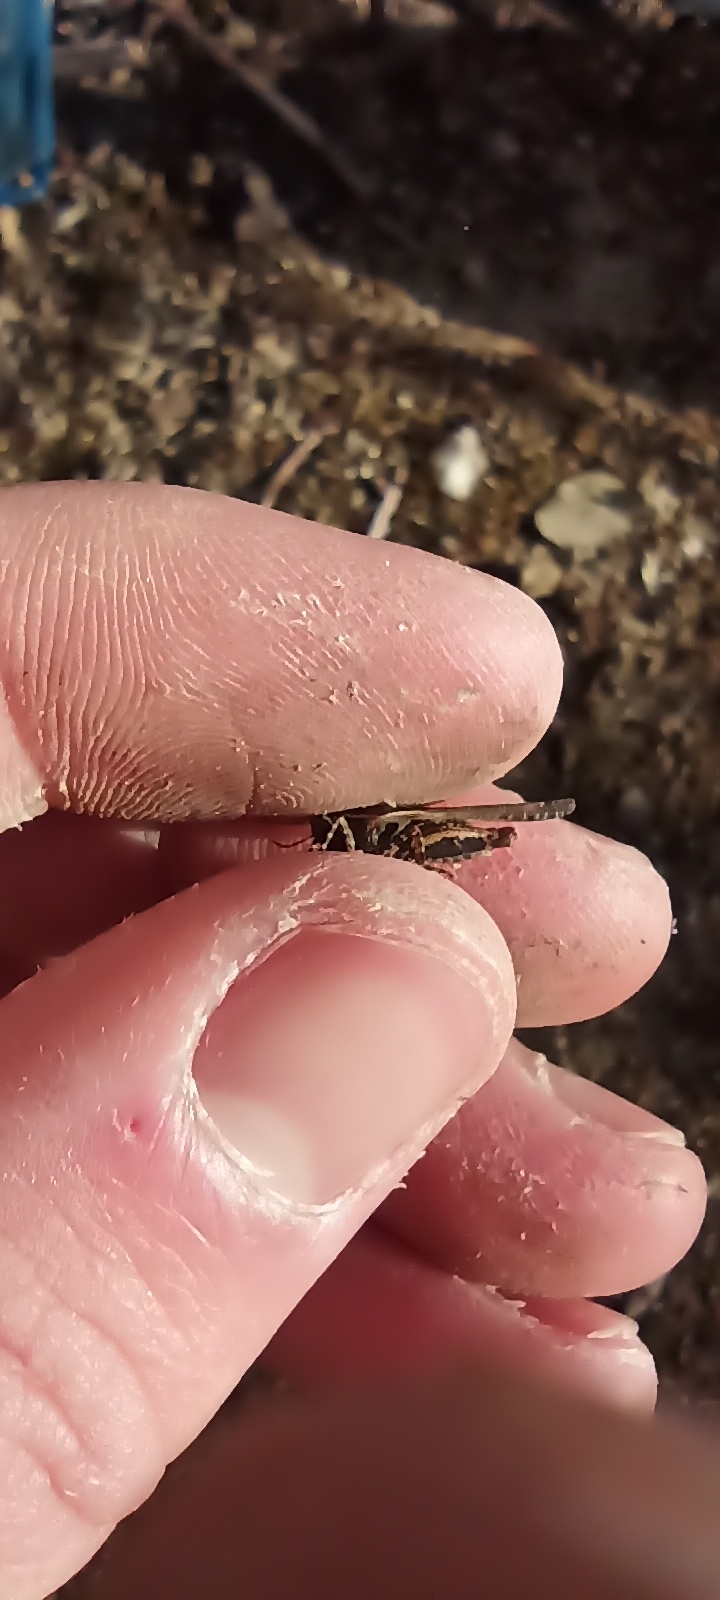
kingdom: Animalia
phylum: Arthropoda
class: Insecta
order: Orthoptera
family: Tetrigidae
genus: Paratettix
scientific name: Paratettix meridionalis
